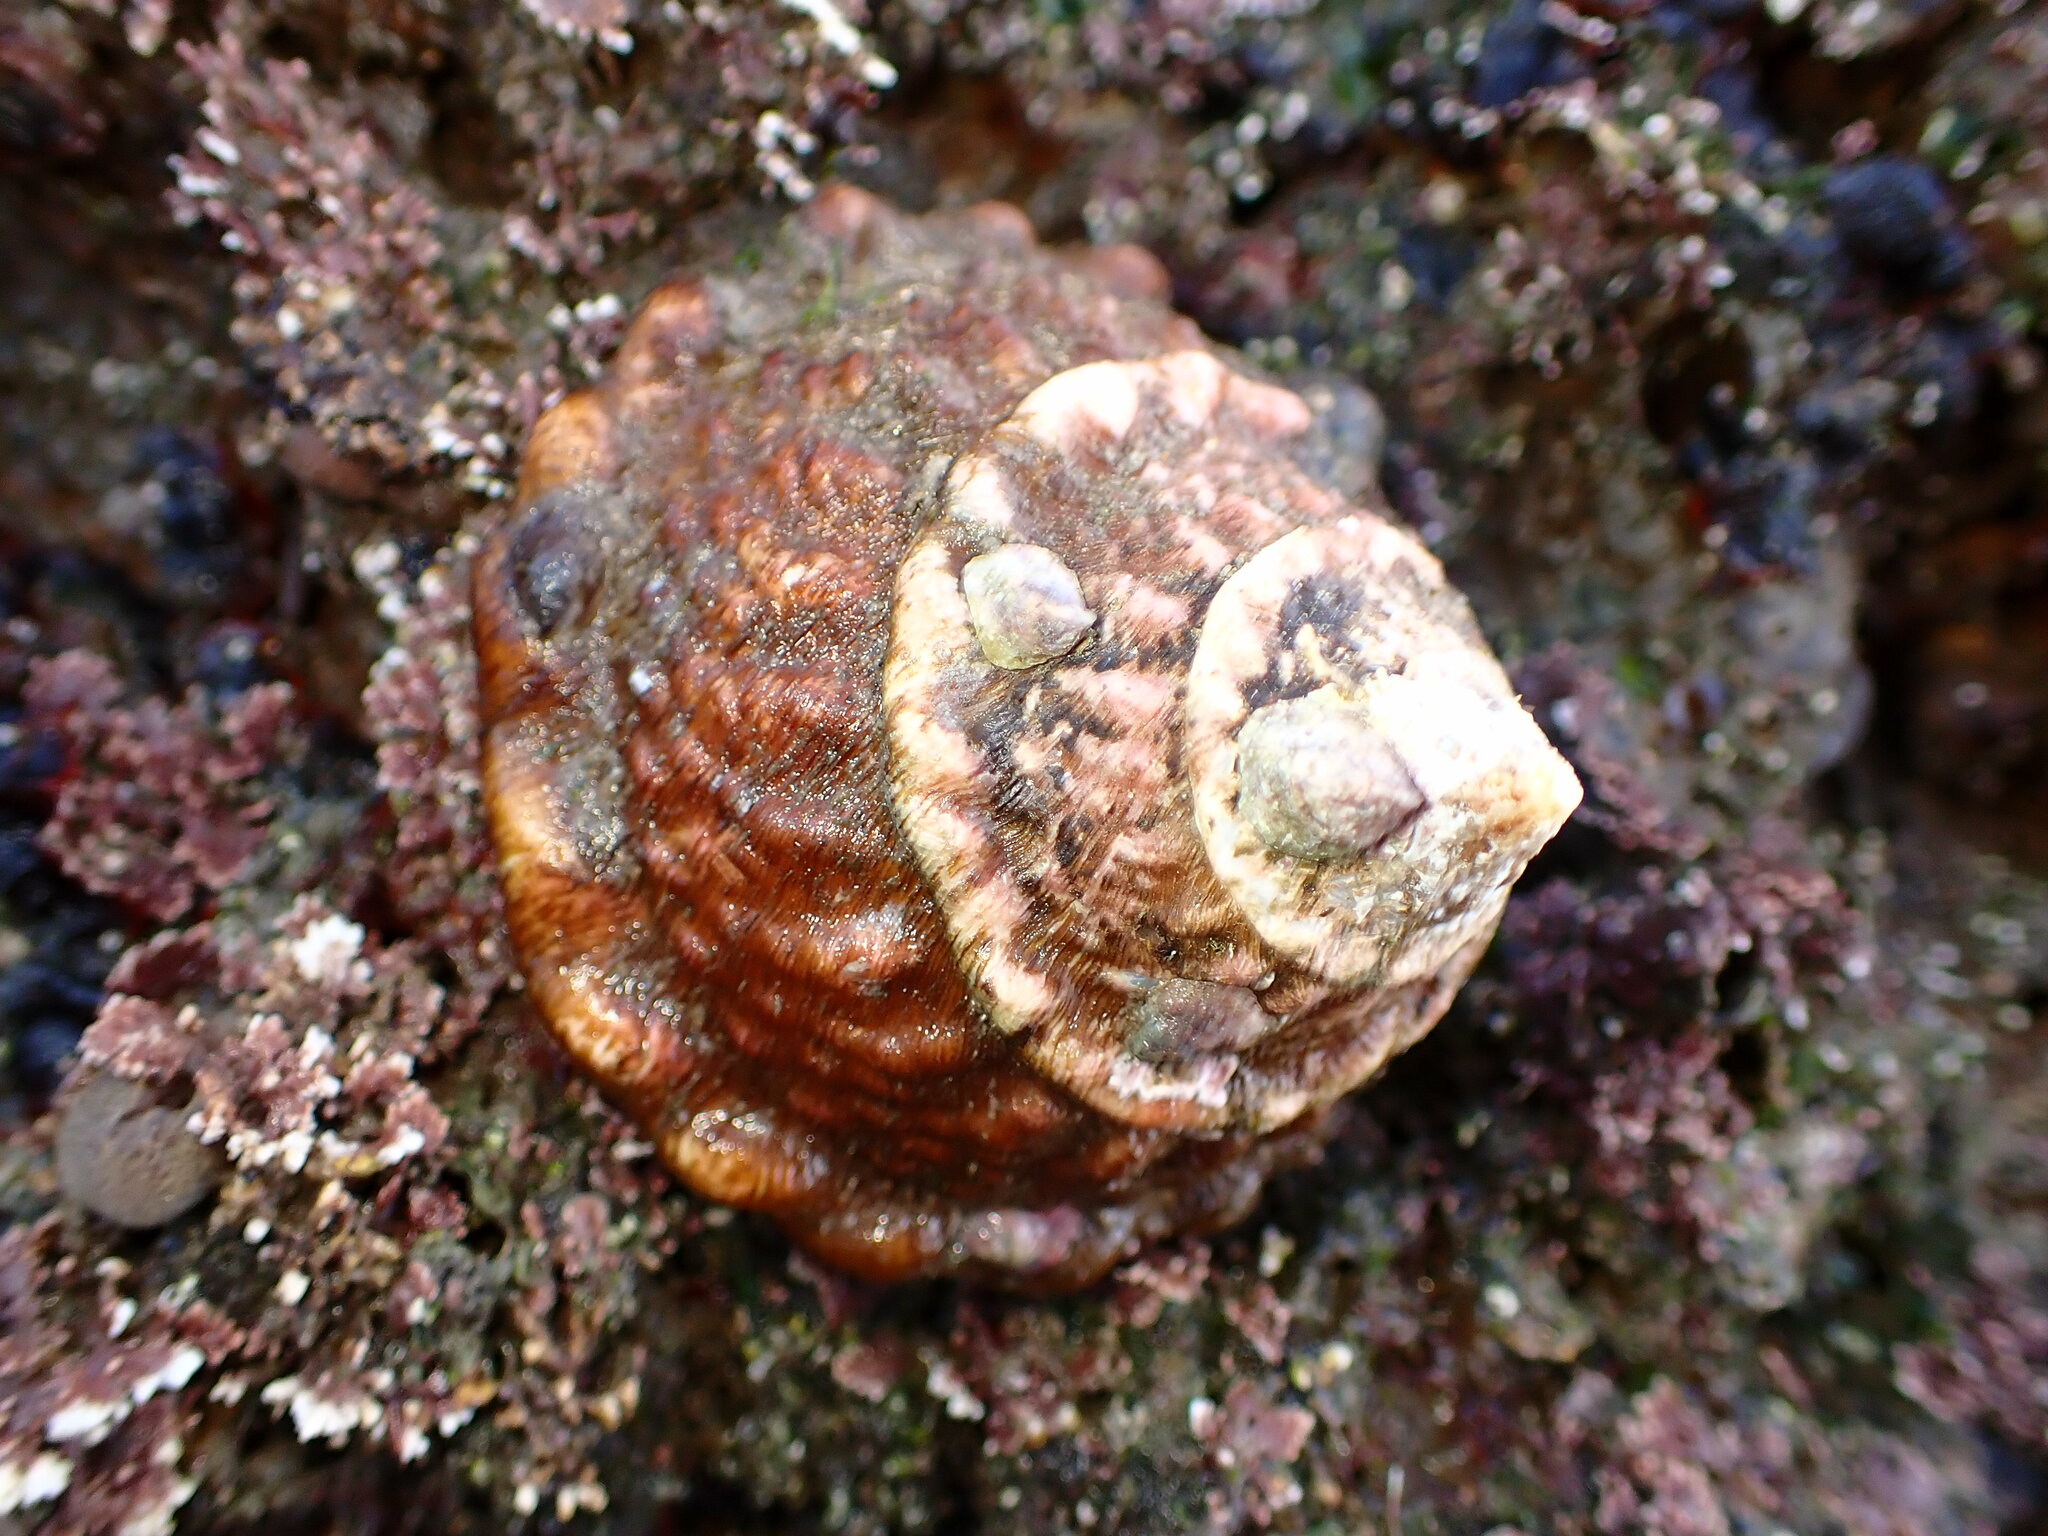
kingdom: Animalia
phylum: Mollusca
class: Gastropoda
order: Trochida
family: Turbinidae
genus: Megastraea
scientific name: Megastraea undosa
